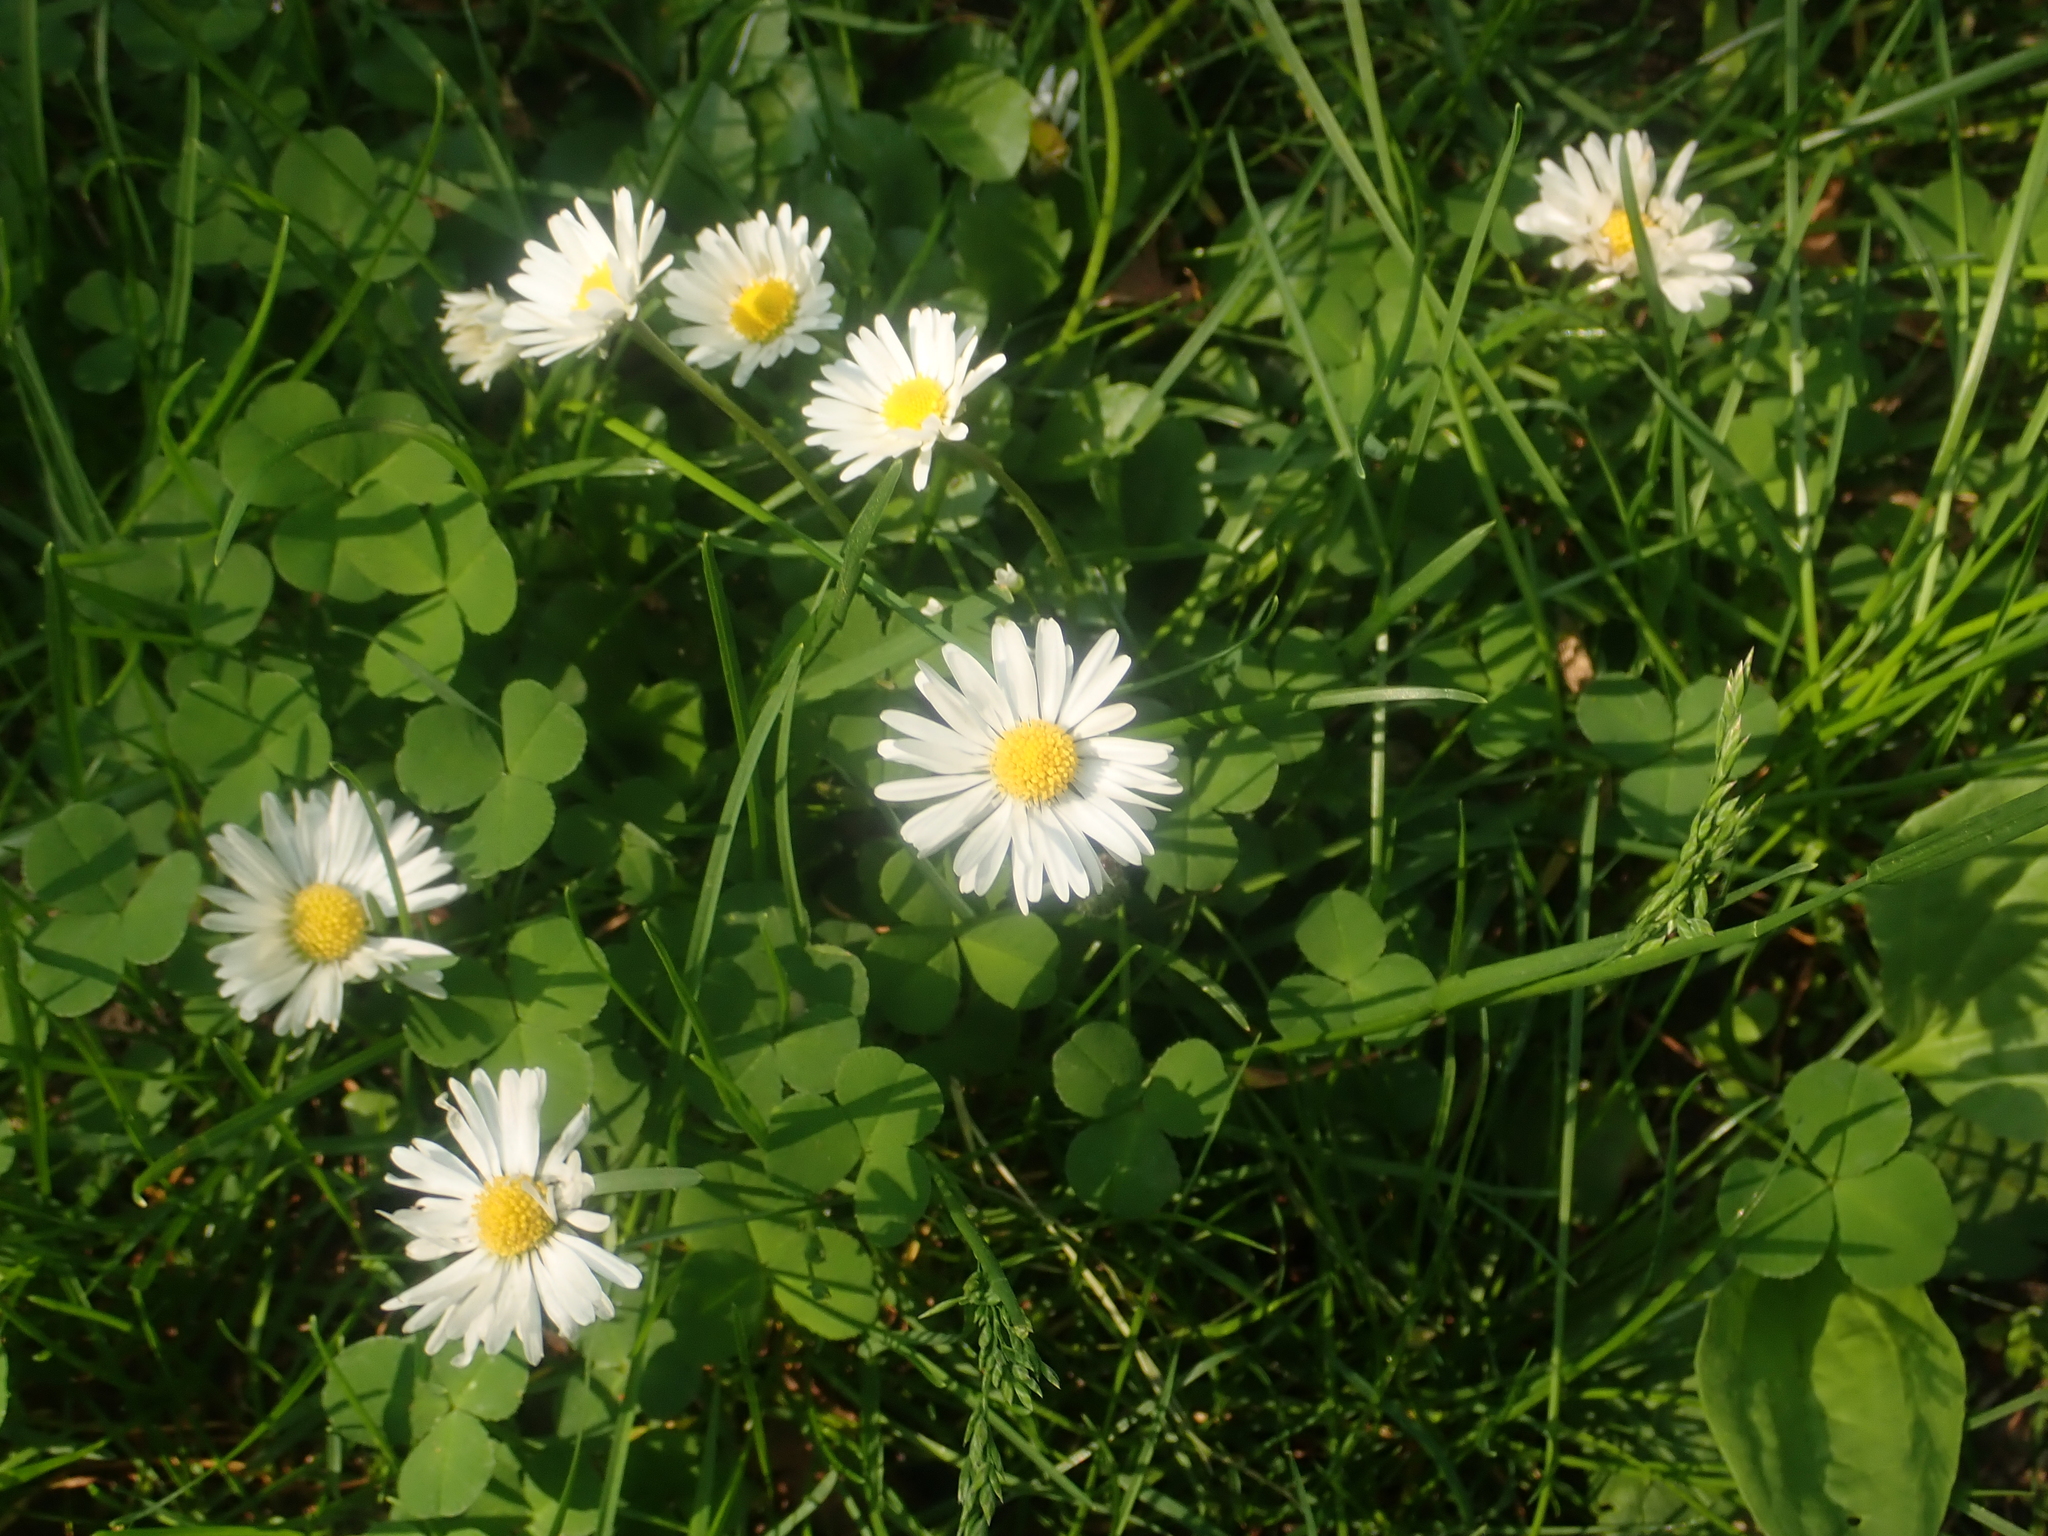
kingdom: Plantae
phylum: Tracheophyta
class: Magnoliopsida
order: Asterales
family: Asteraceae
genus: Bellis
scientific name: Bellis perennis
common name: Lawndaisy
